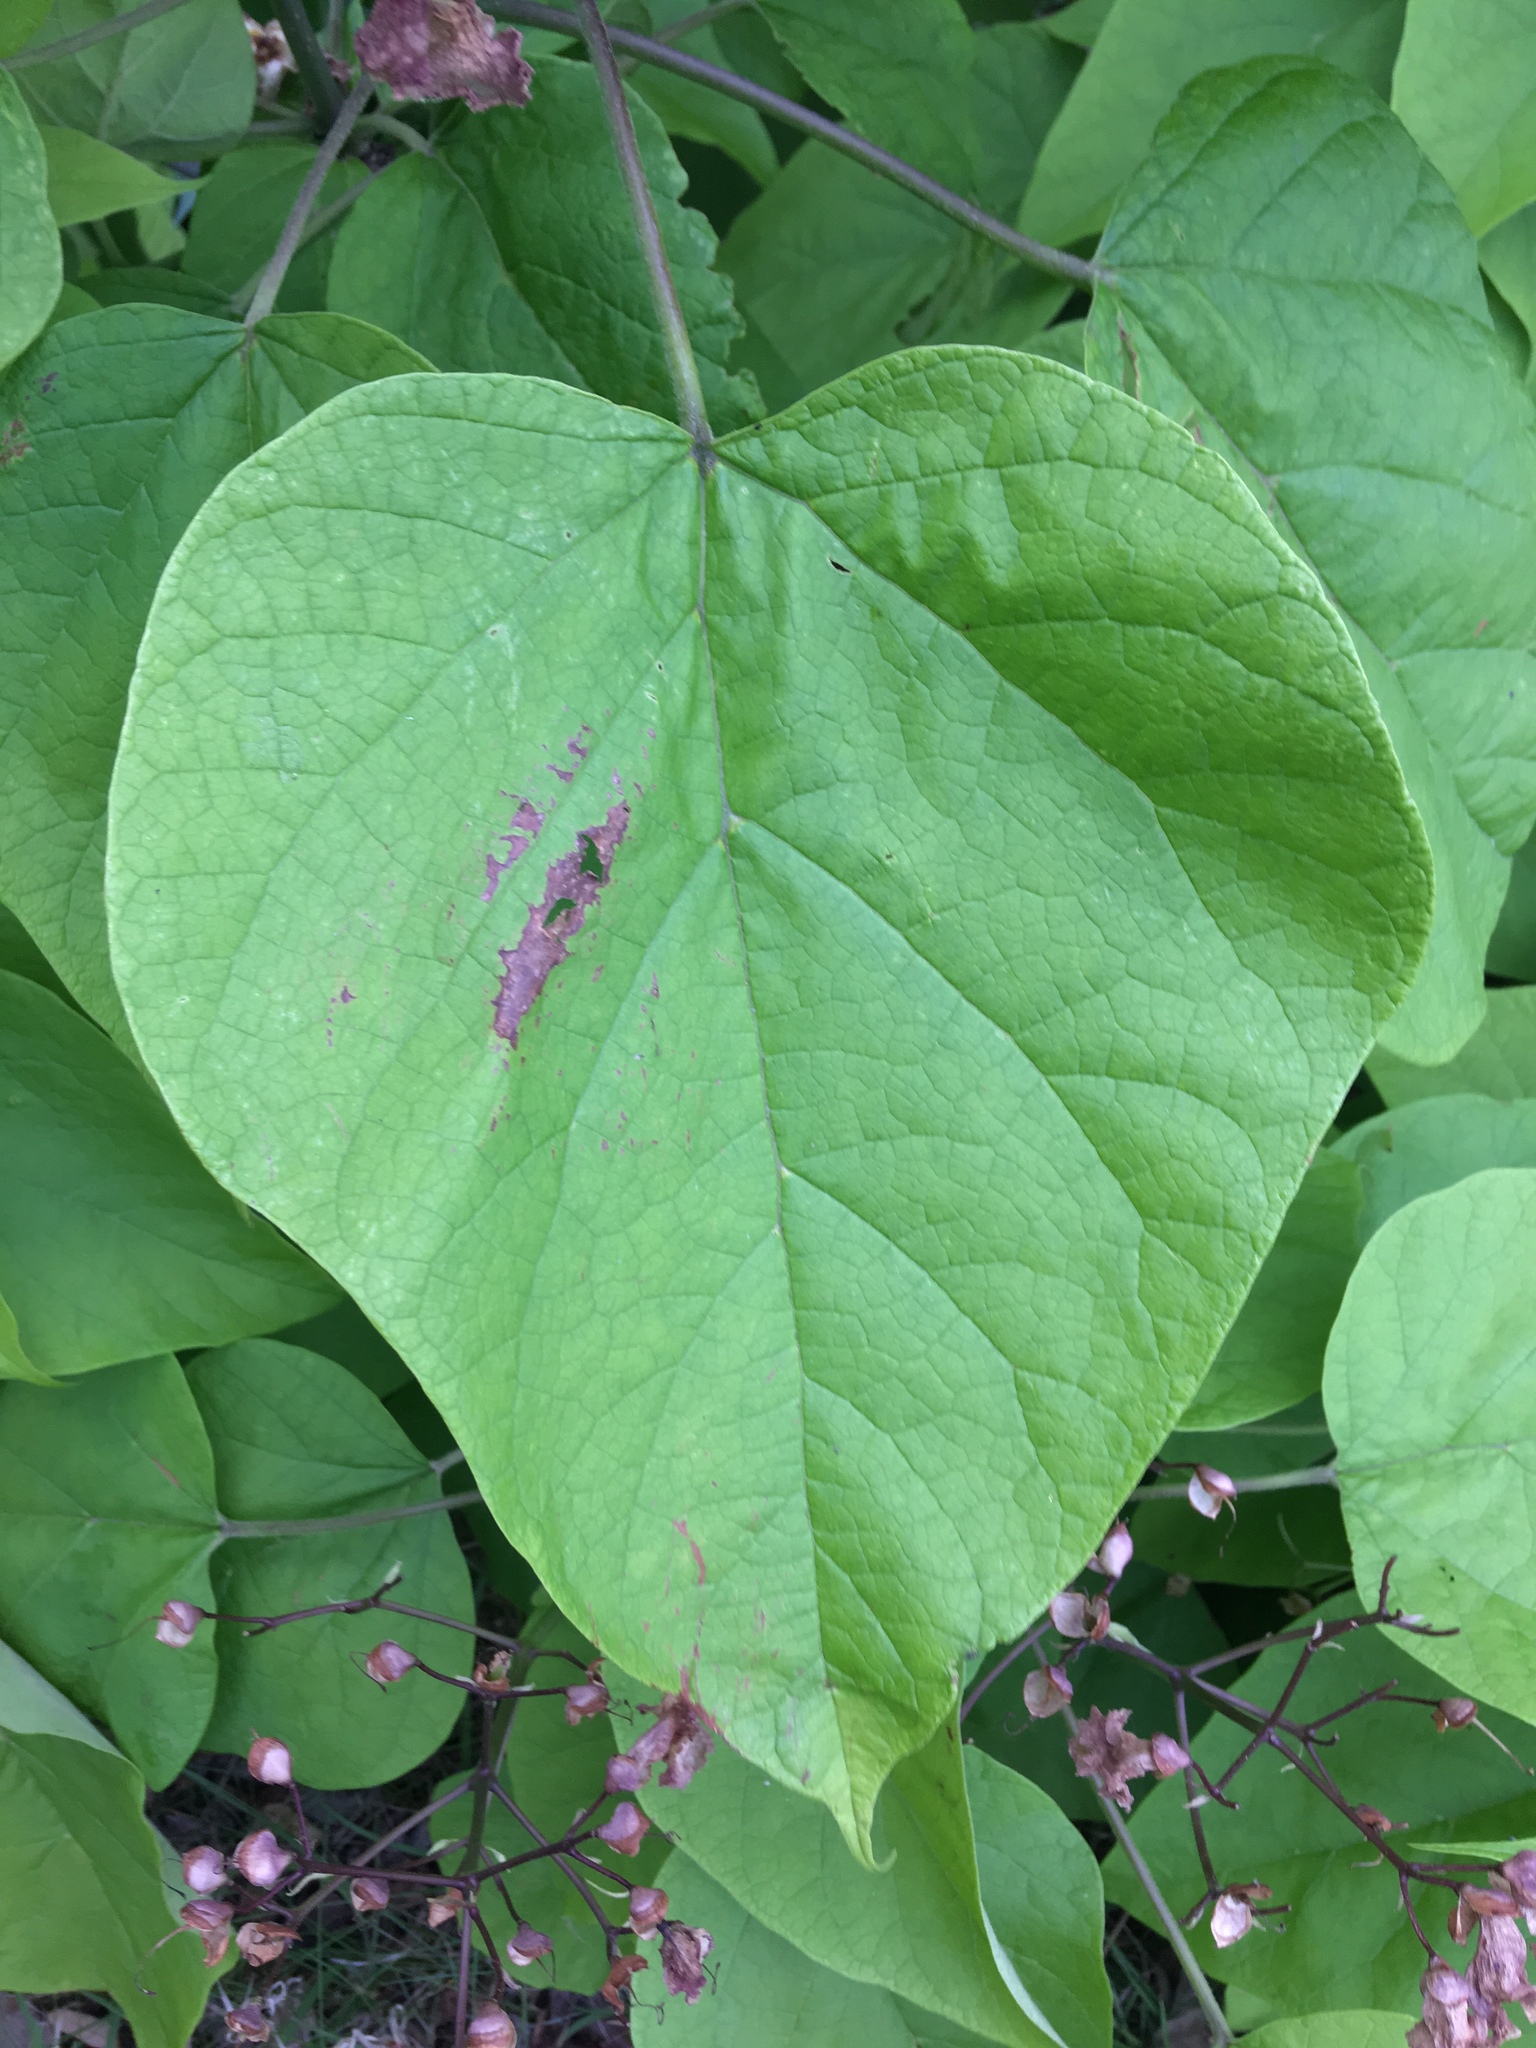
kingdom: Plantae
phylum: Tracheophyta
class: Magnoliopsida
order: Lamiales
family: Bignoniaceae
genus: Catalpa
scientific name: Catalpa speciosa
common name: Northern catalpa
